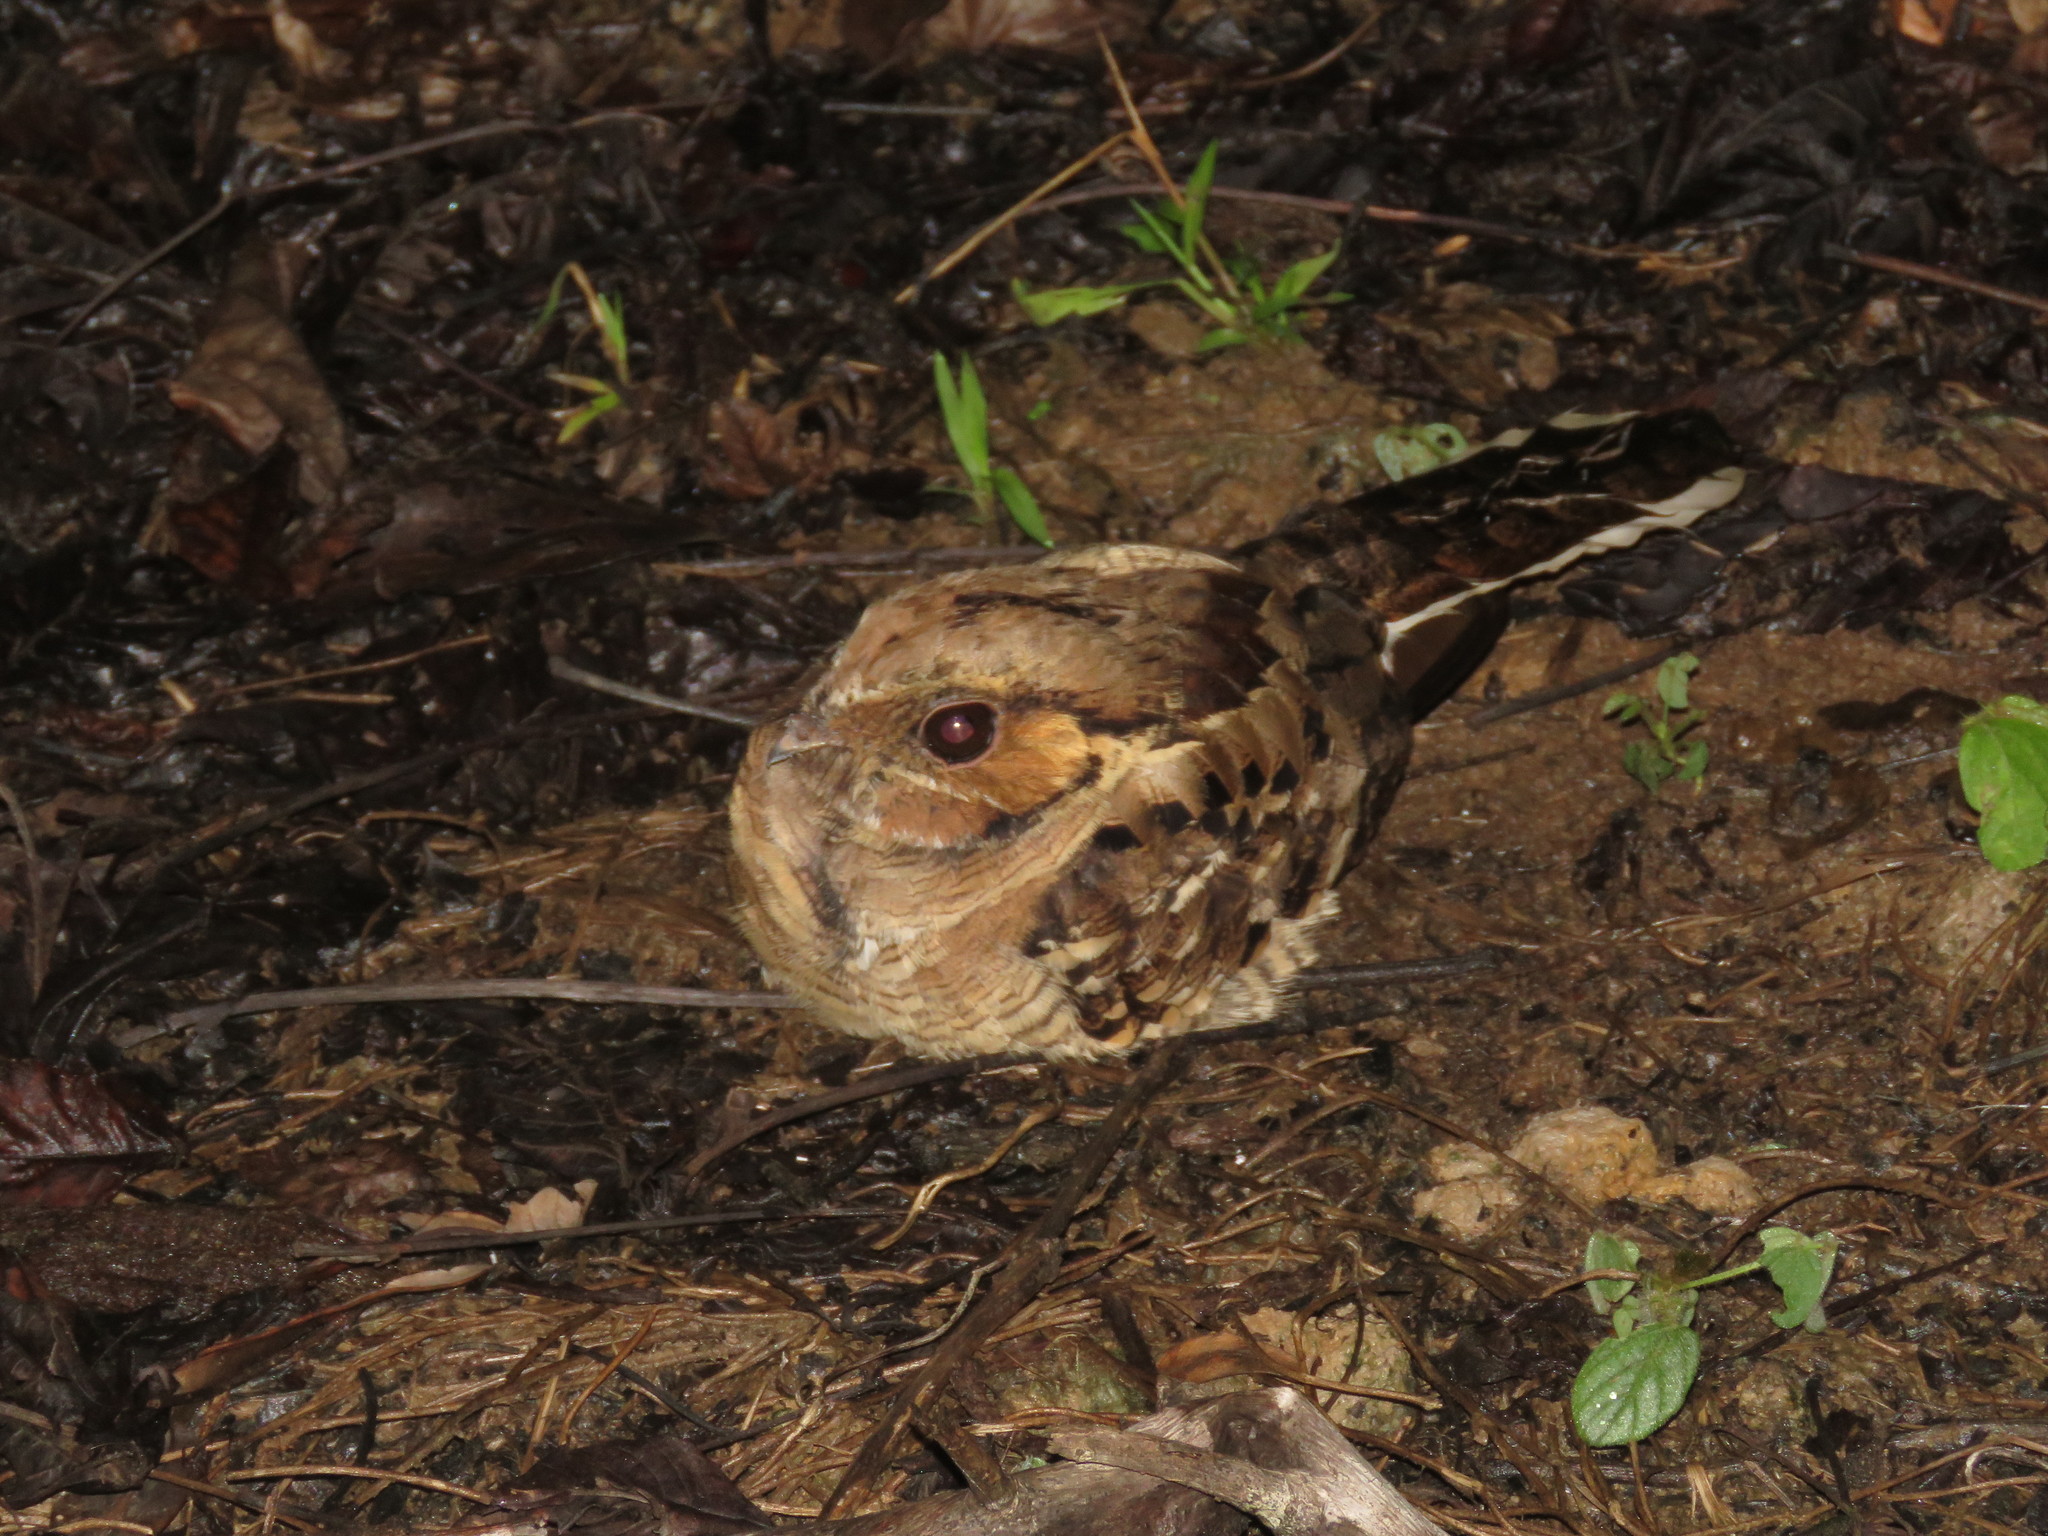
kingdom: Animalia
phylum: Chordata
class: Aves
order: Caprimulgiformes
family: Caprimulgidae
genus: Nyctidromus
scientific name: Nyctidromus albicollis
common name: Pauraque
